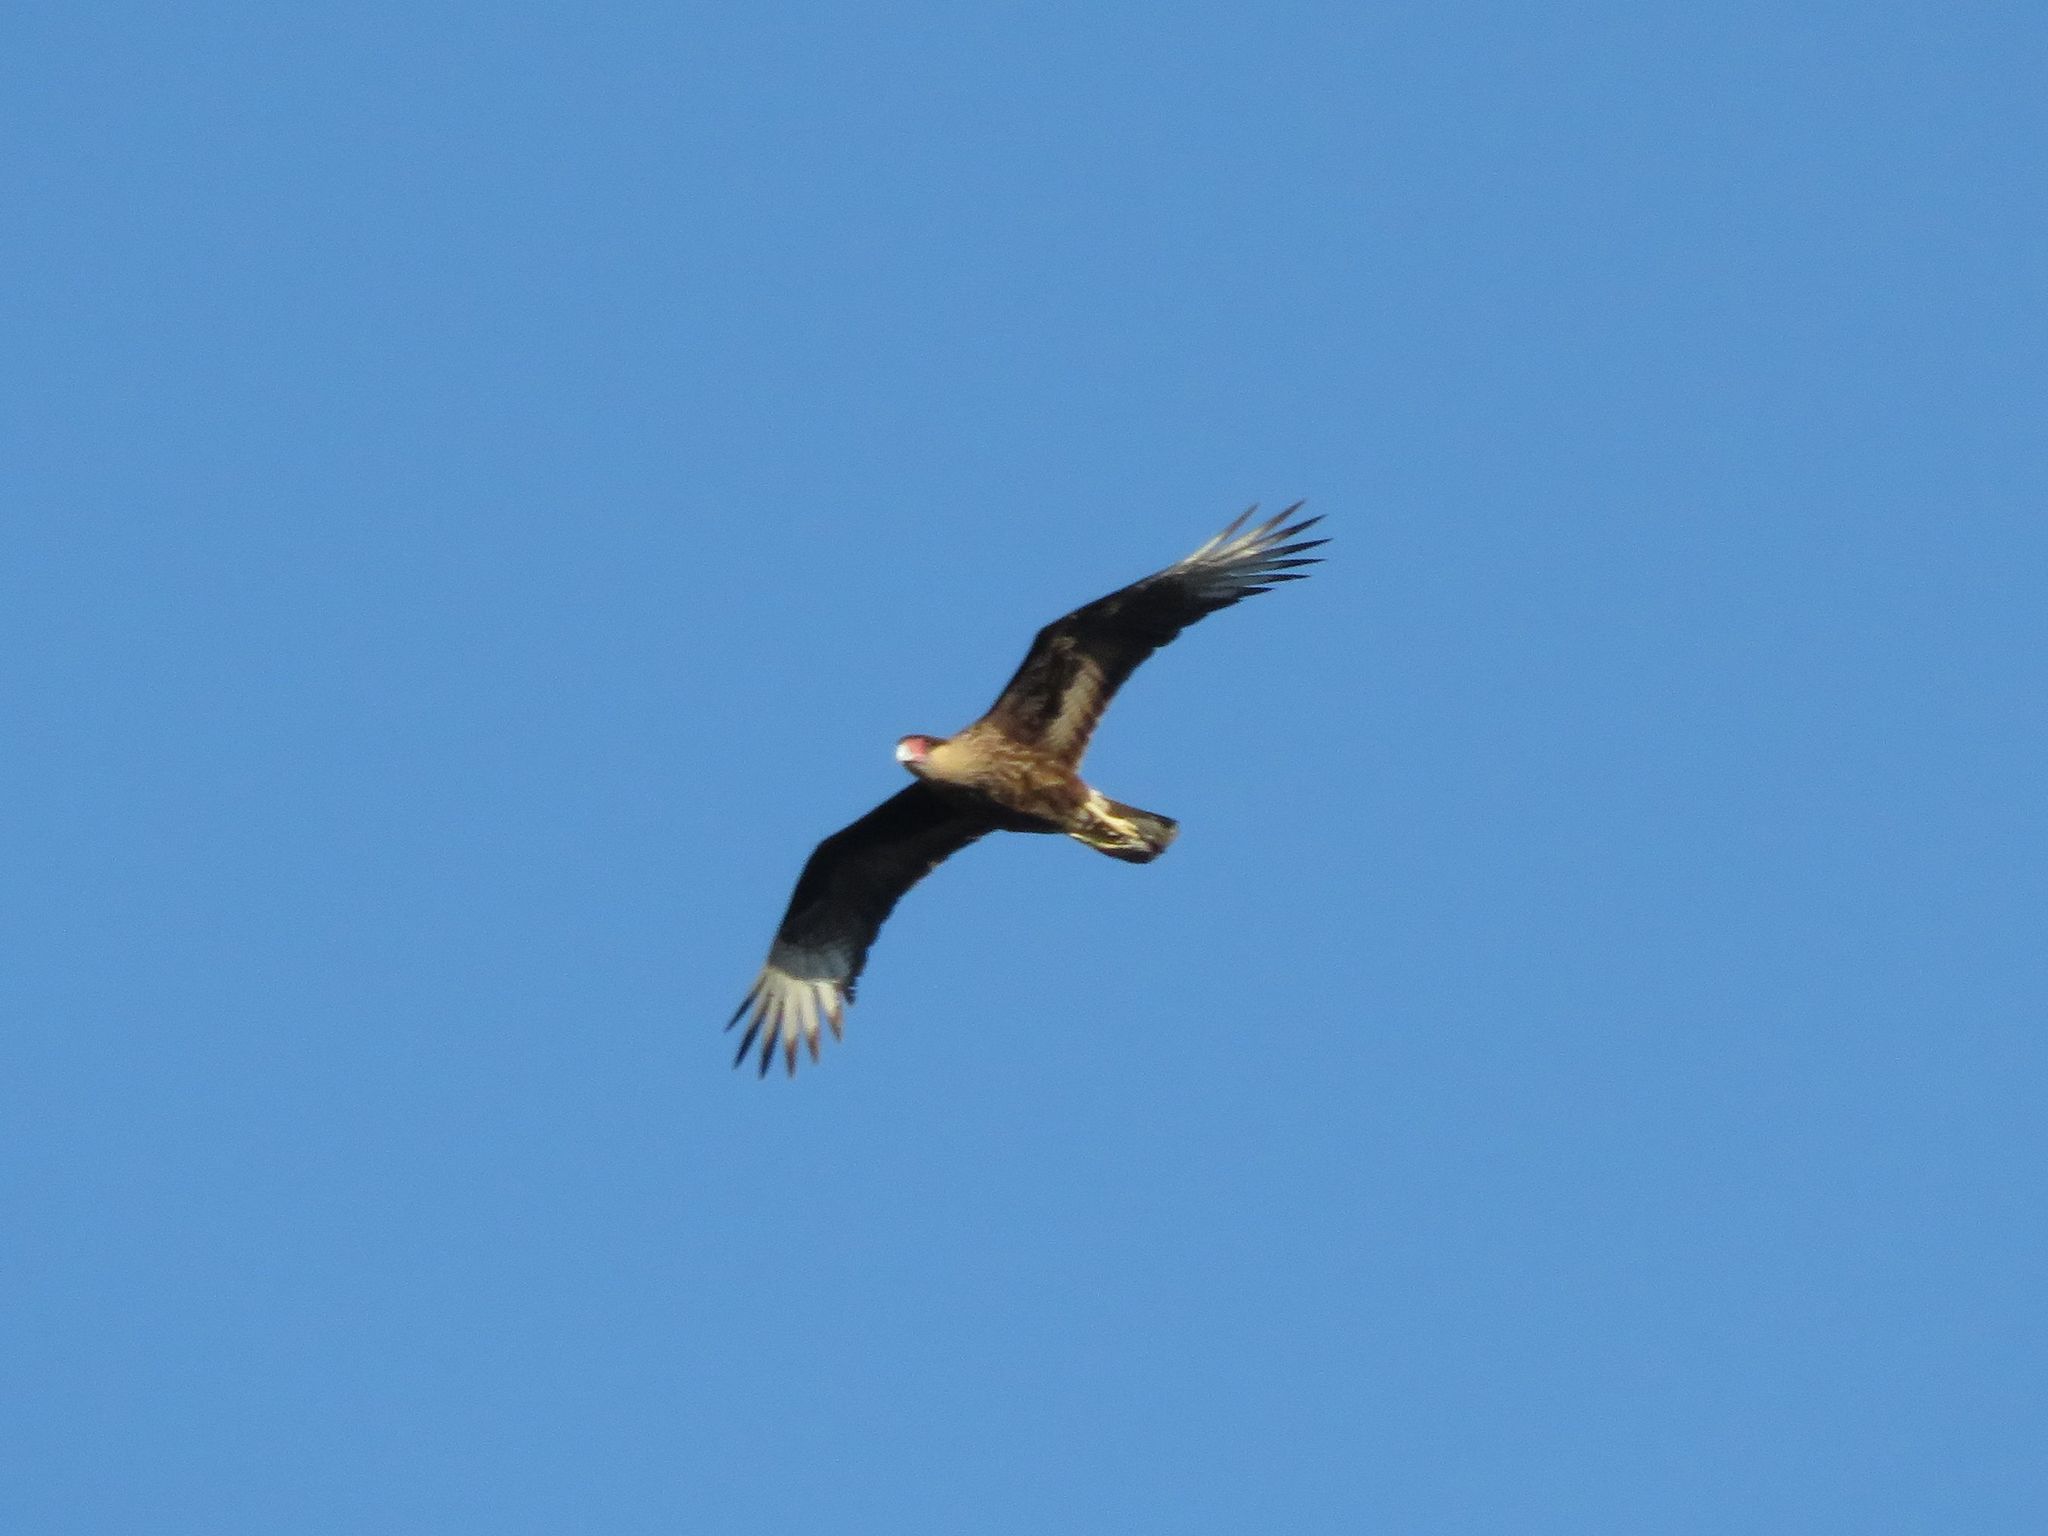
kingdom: Animalia
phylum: Chordata
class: Aves
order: Falconiformes
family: Falconidae
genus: Caracara
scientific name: Caracara plancus
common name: Southern caracara
